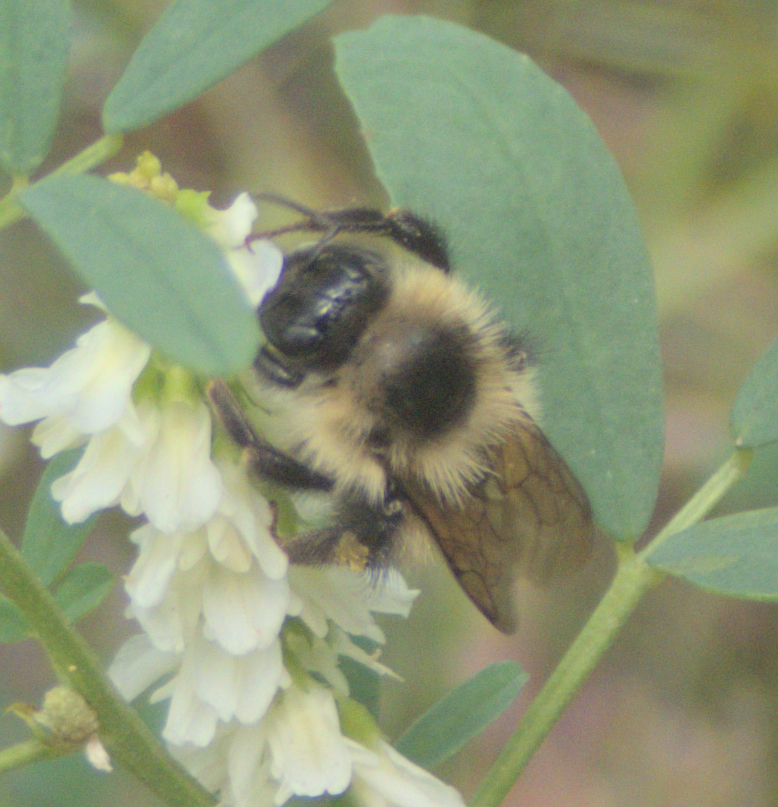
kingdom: Animalia
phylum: Arthropoda
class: Insecta
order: Hymenoptera
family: Apidae
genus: Pyrobombus
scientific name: Pyrobombus
